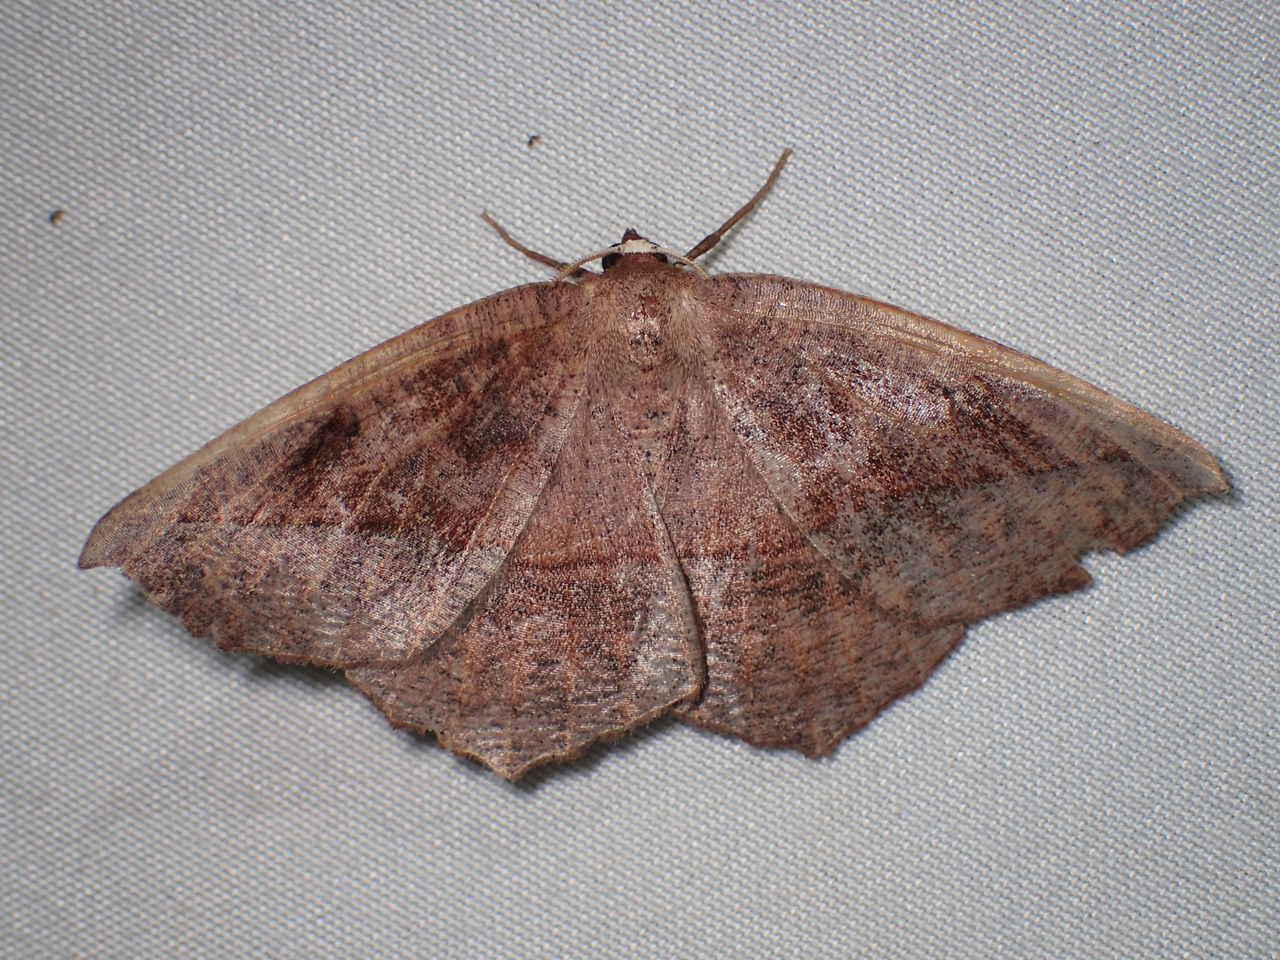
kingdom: Animalia
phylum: Arthropoda
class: Insecta
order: Lepidoptera
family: Geometridae
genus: Eutrapela
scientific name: Eutrapela clemataria
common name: Curved-toothed geometer
